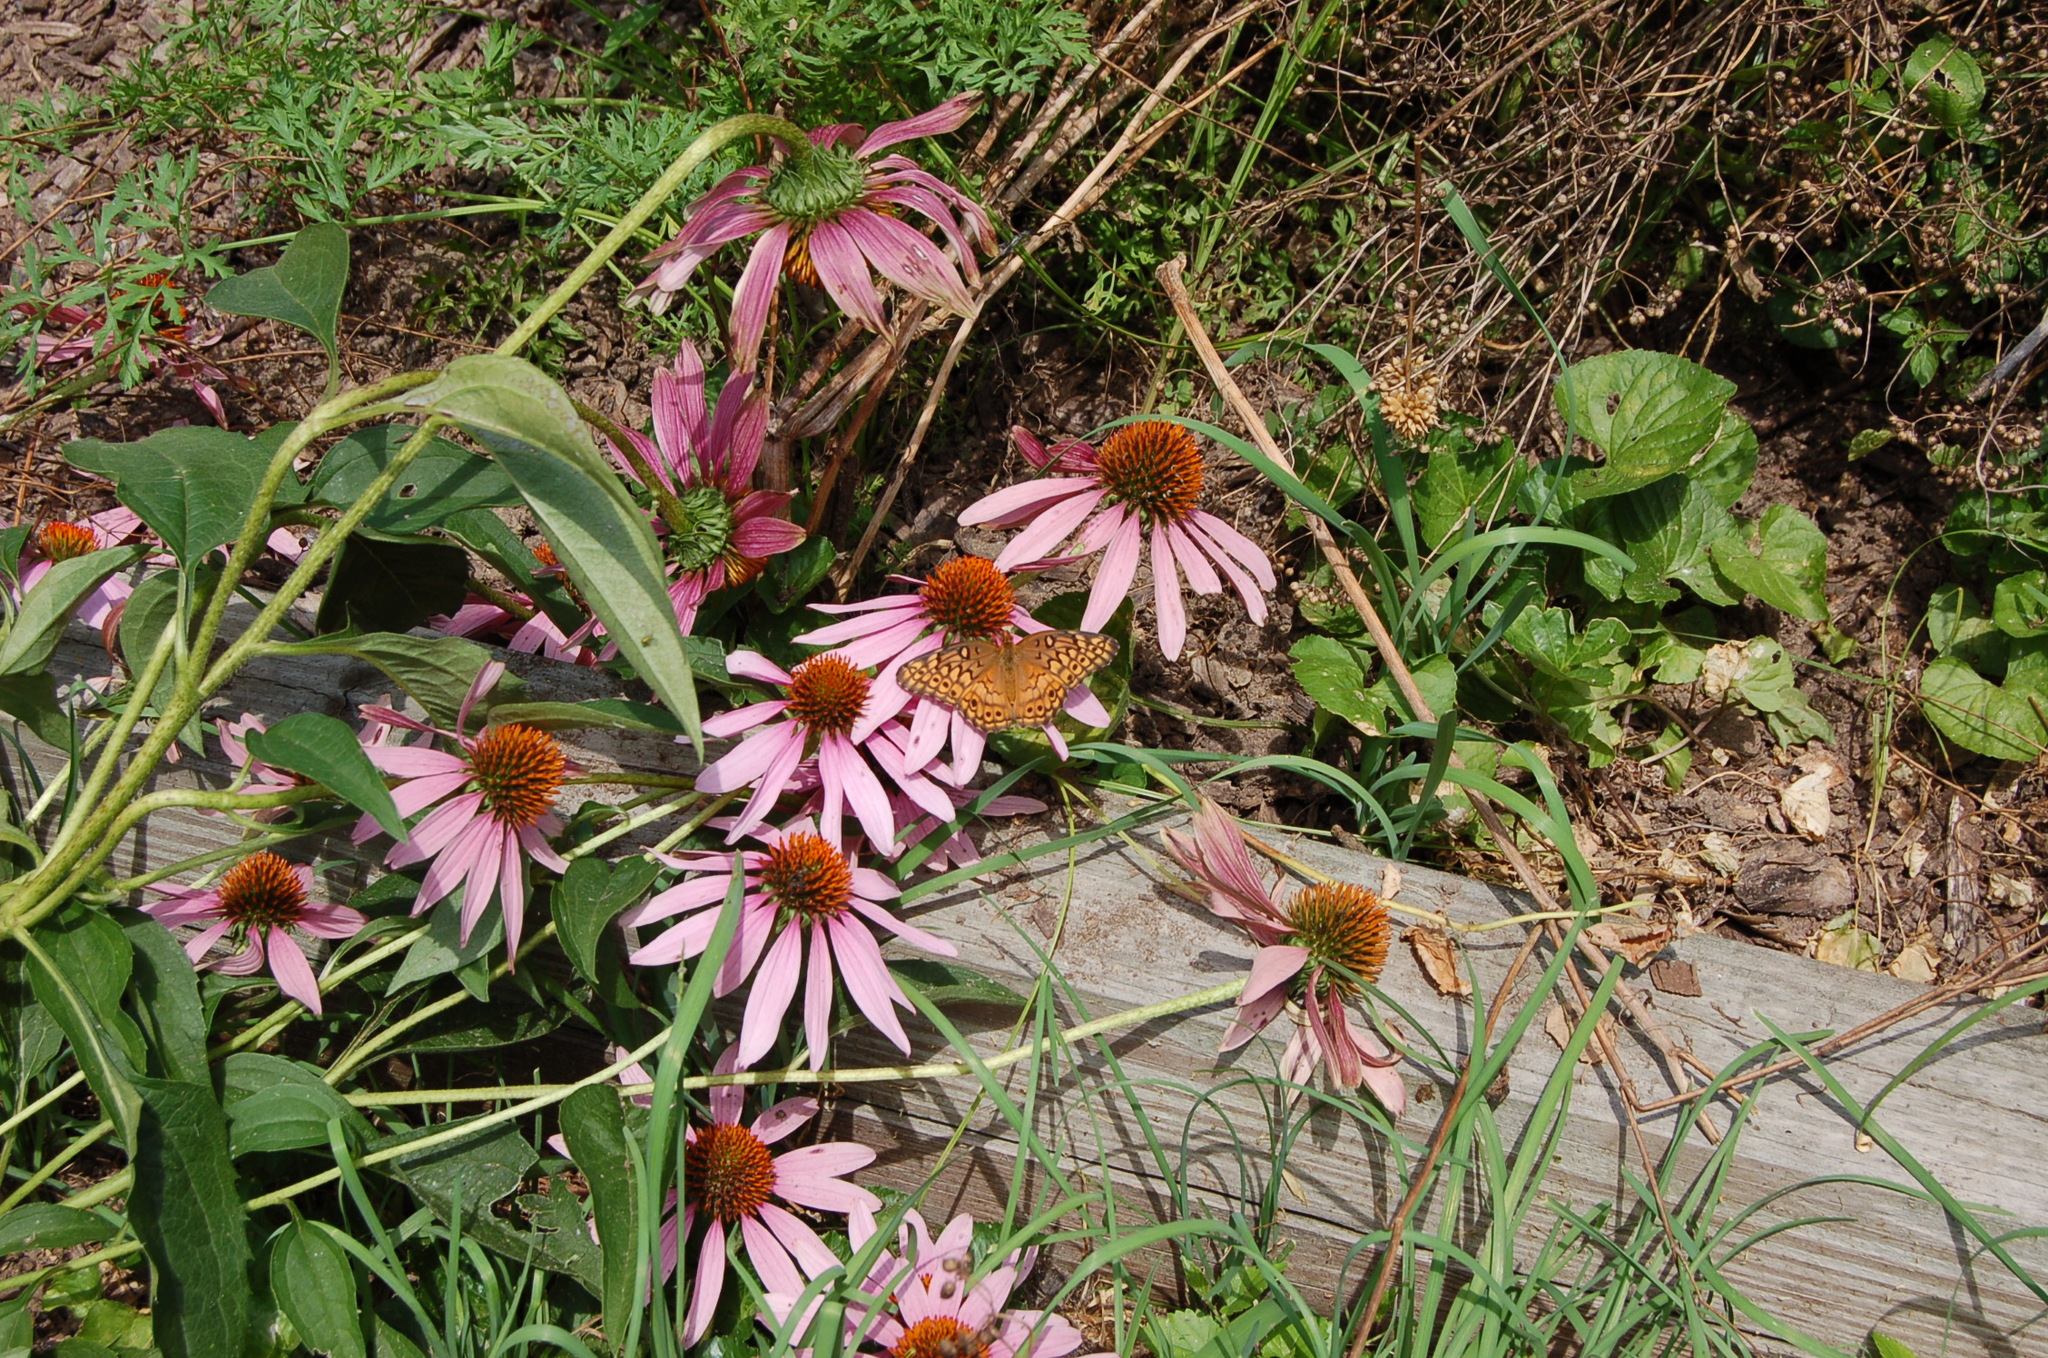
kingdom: Animalia
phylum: Arthropoda
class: Insecta
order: Lepidoptera
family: Nymphalidae
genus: Euptoieta
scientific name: Euptoieta claudia
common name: Variegated fritillary
